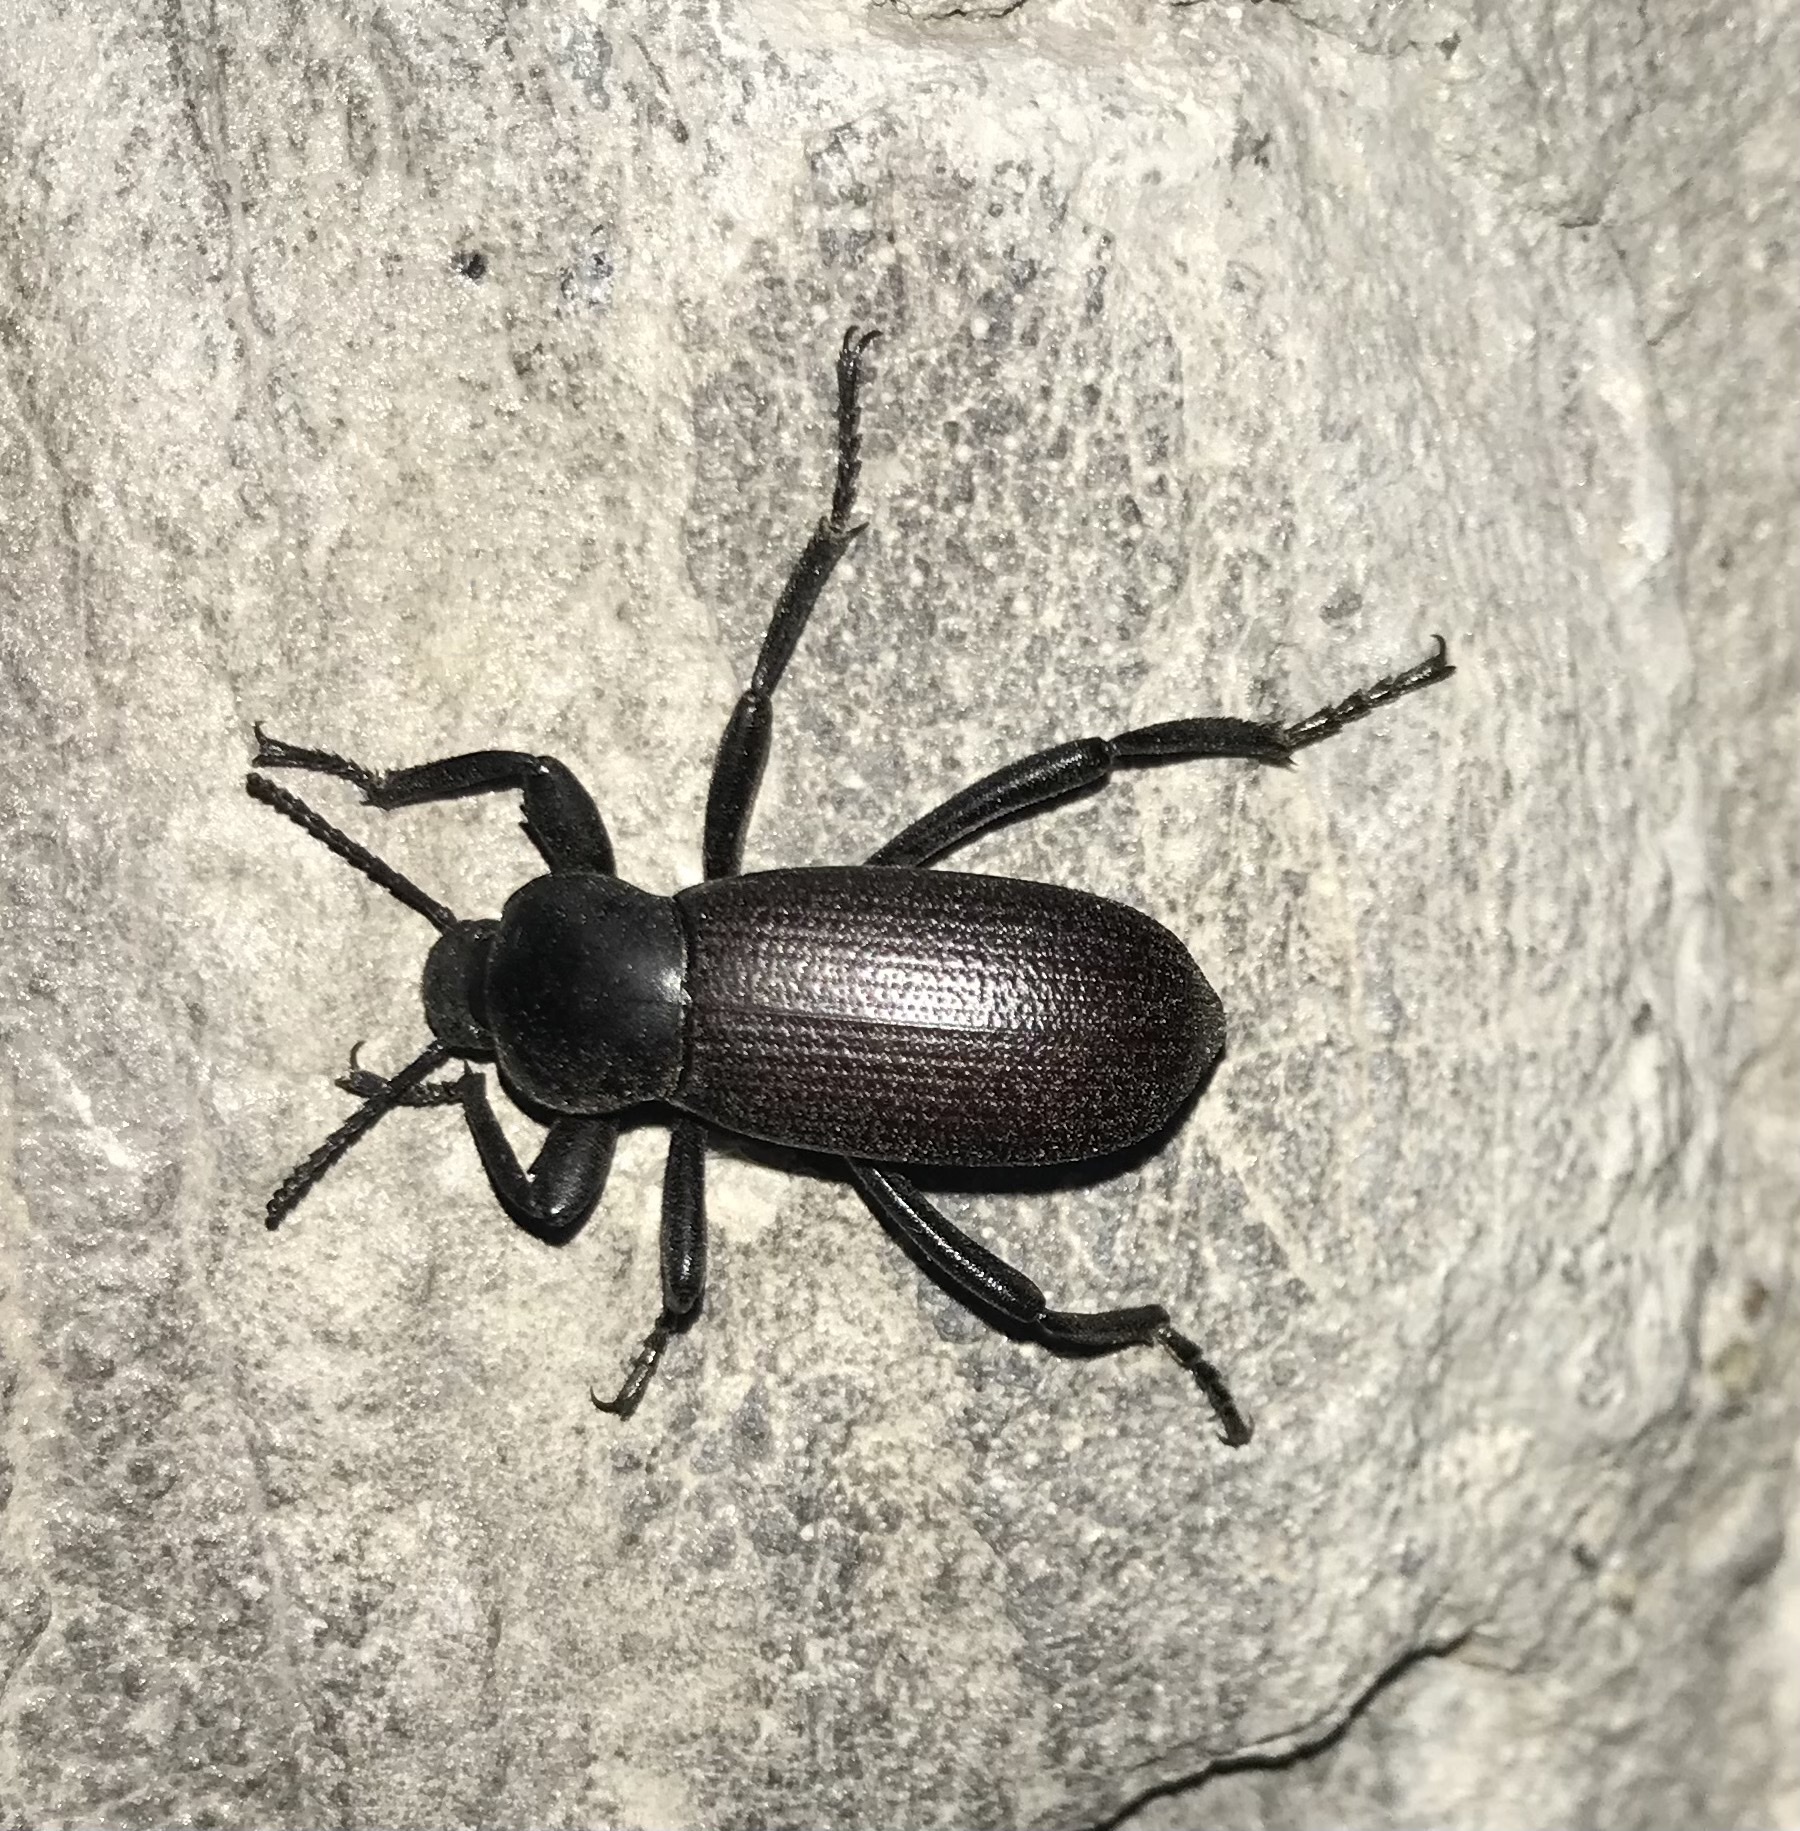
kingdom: Animalia
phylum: Arthropoda
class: Insecta
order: Coleoptera
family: Tenebrionidae
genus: Eleodes
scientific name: Eleodes obscura
